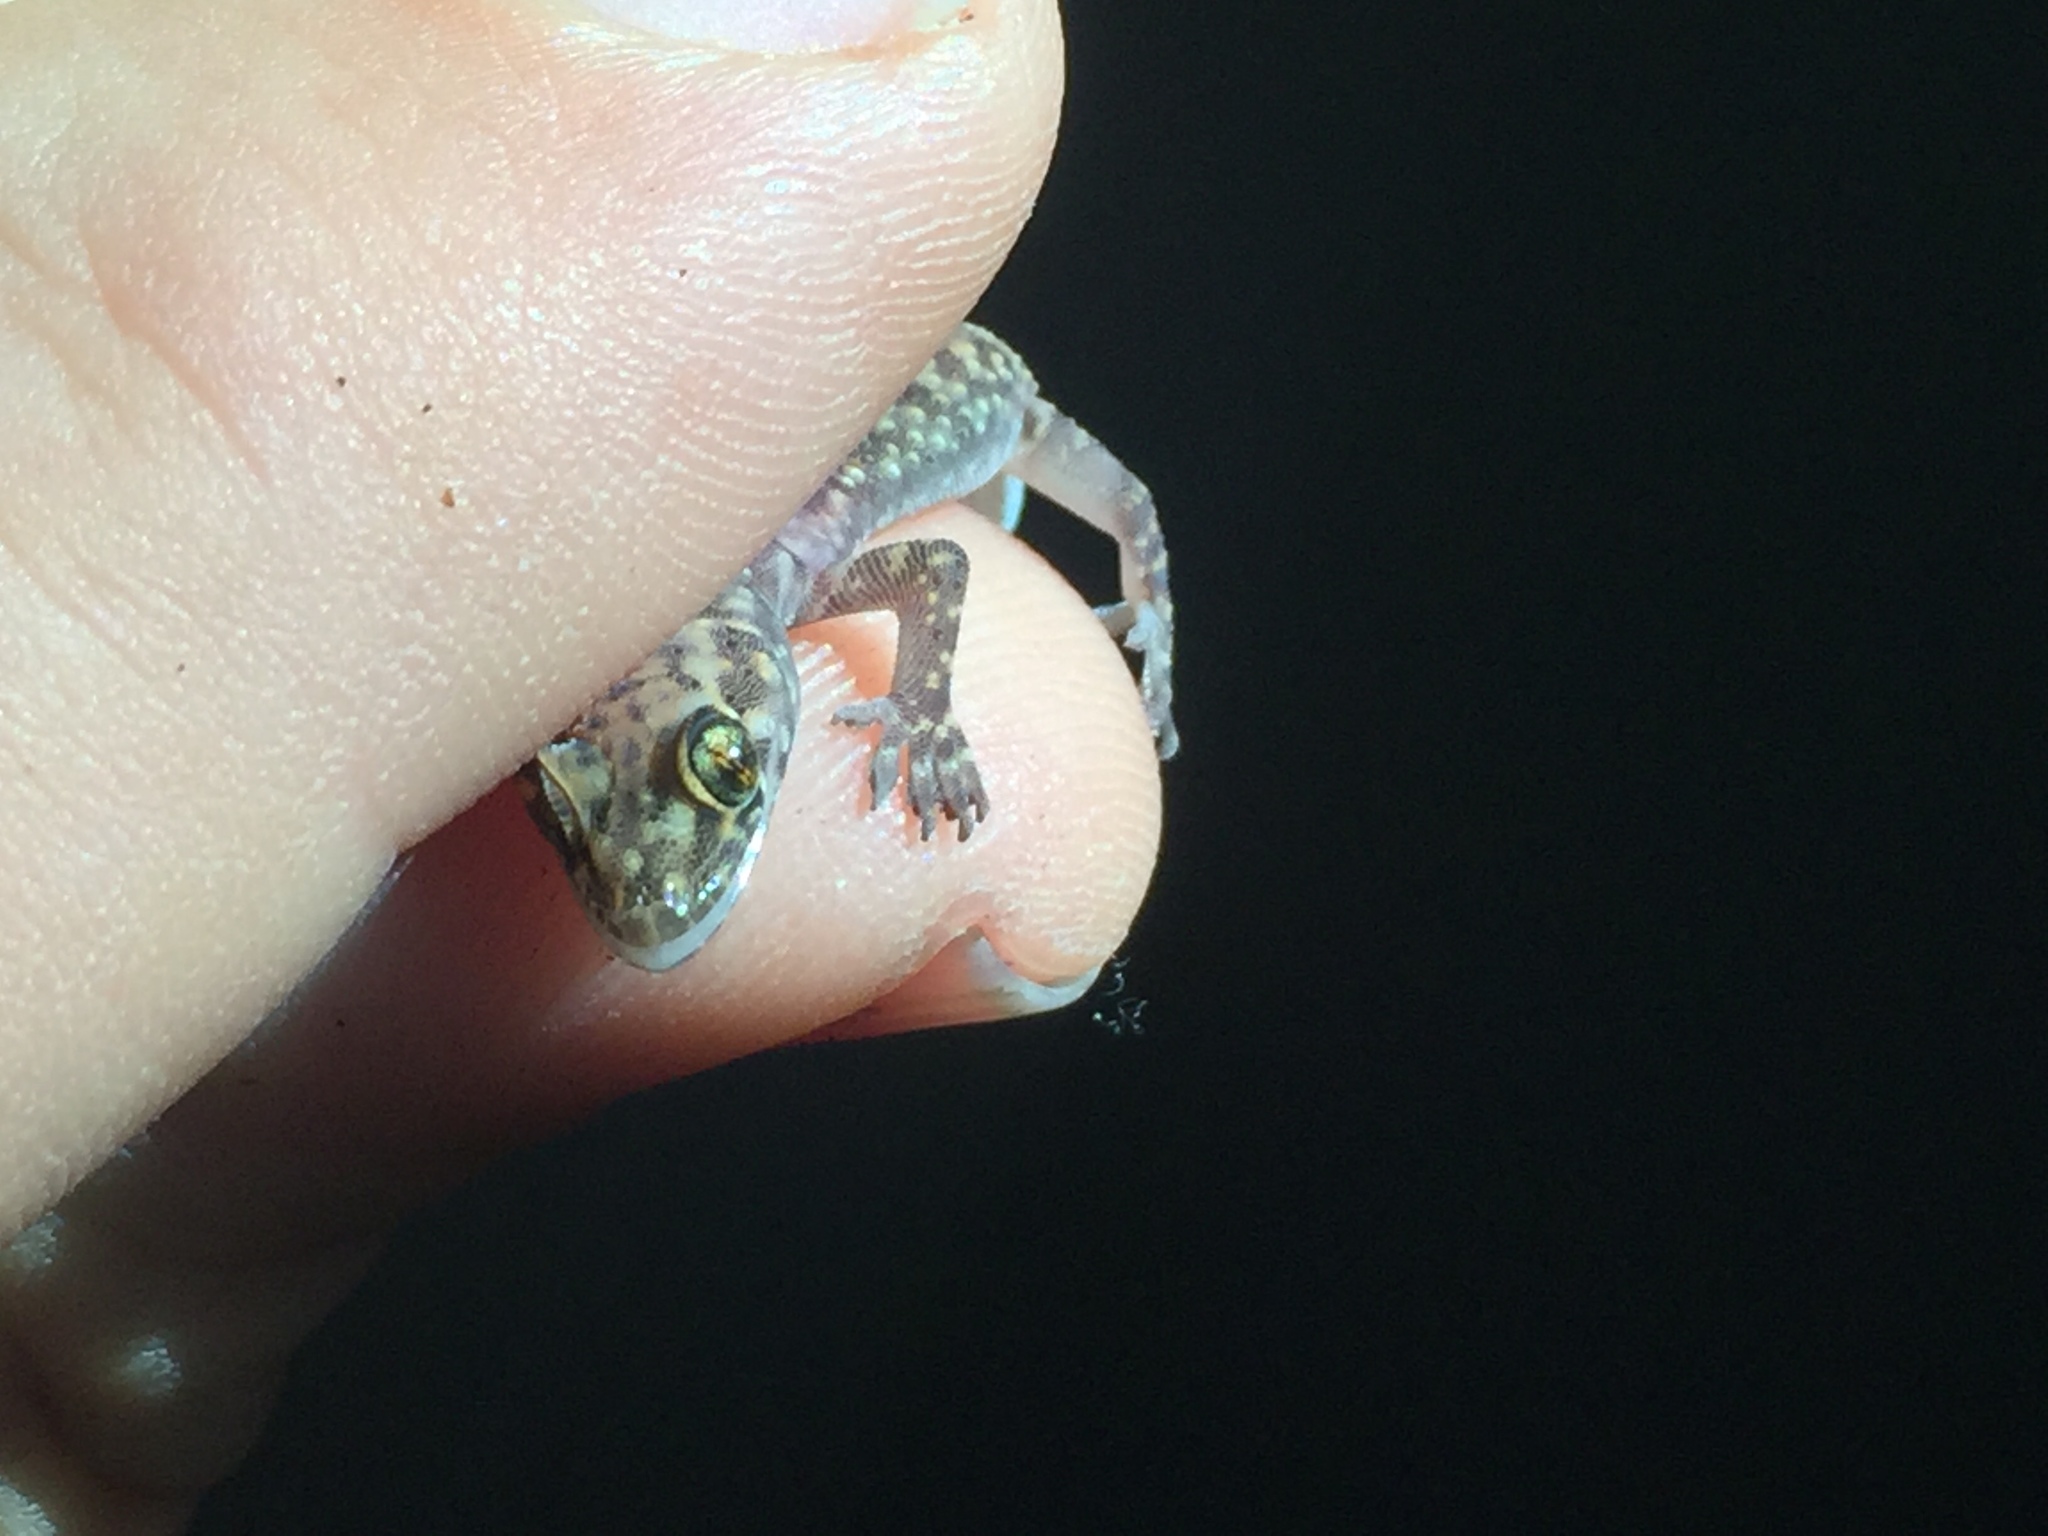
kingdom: Animalia
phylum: Chordata
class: Squamata
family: Gekkonidae
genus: Hemidactylus
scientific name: Hemidactylus turcicus
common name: Turkish gecko
